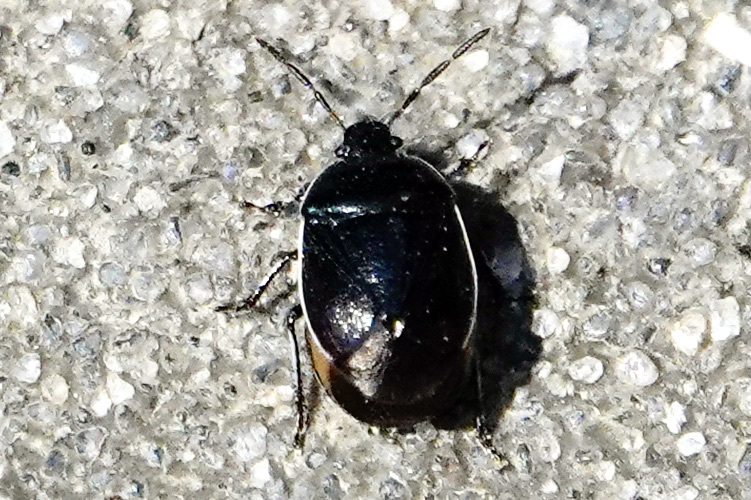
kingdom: Animalia
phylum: Arthropoda
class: Insecta
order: Hemiptera
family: Cydnidae
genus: Sehirus
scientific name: Sehirus cinctus
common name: White-margined burrower bug
